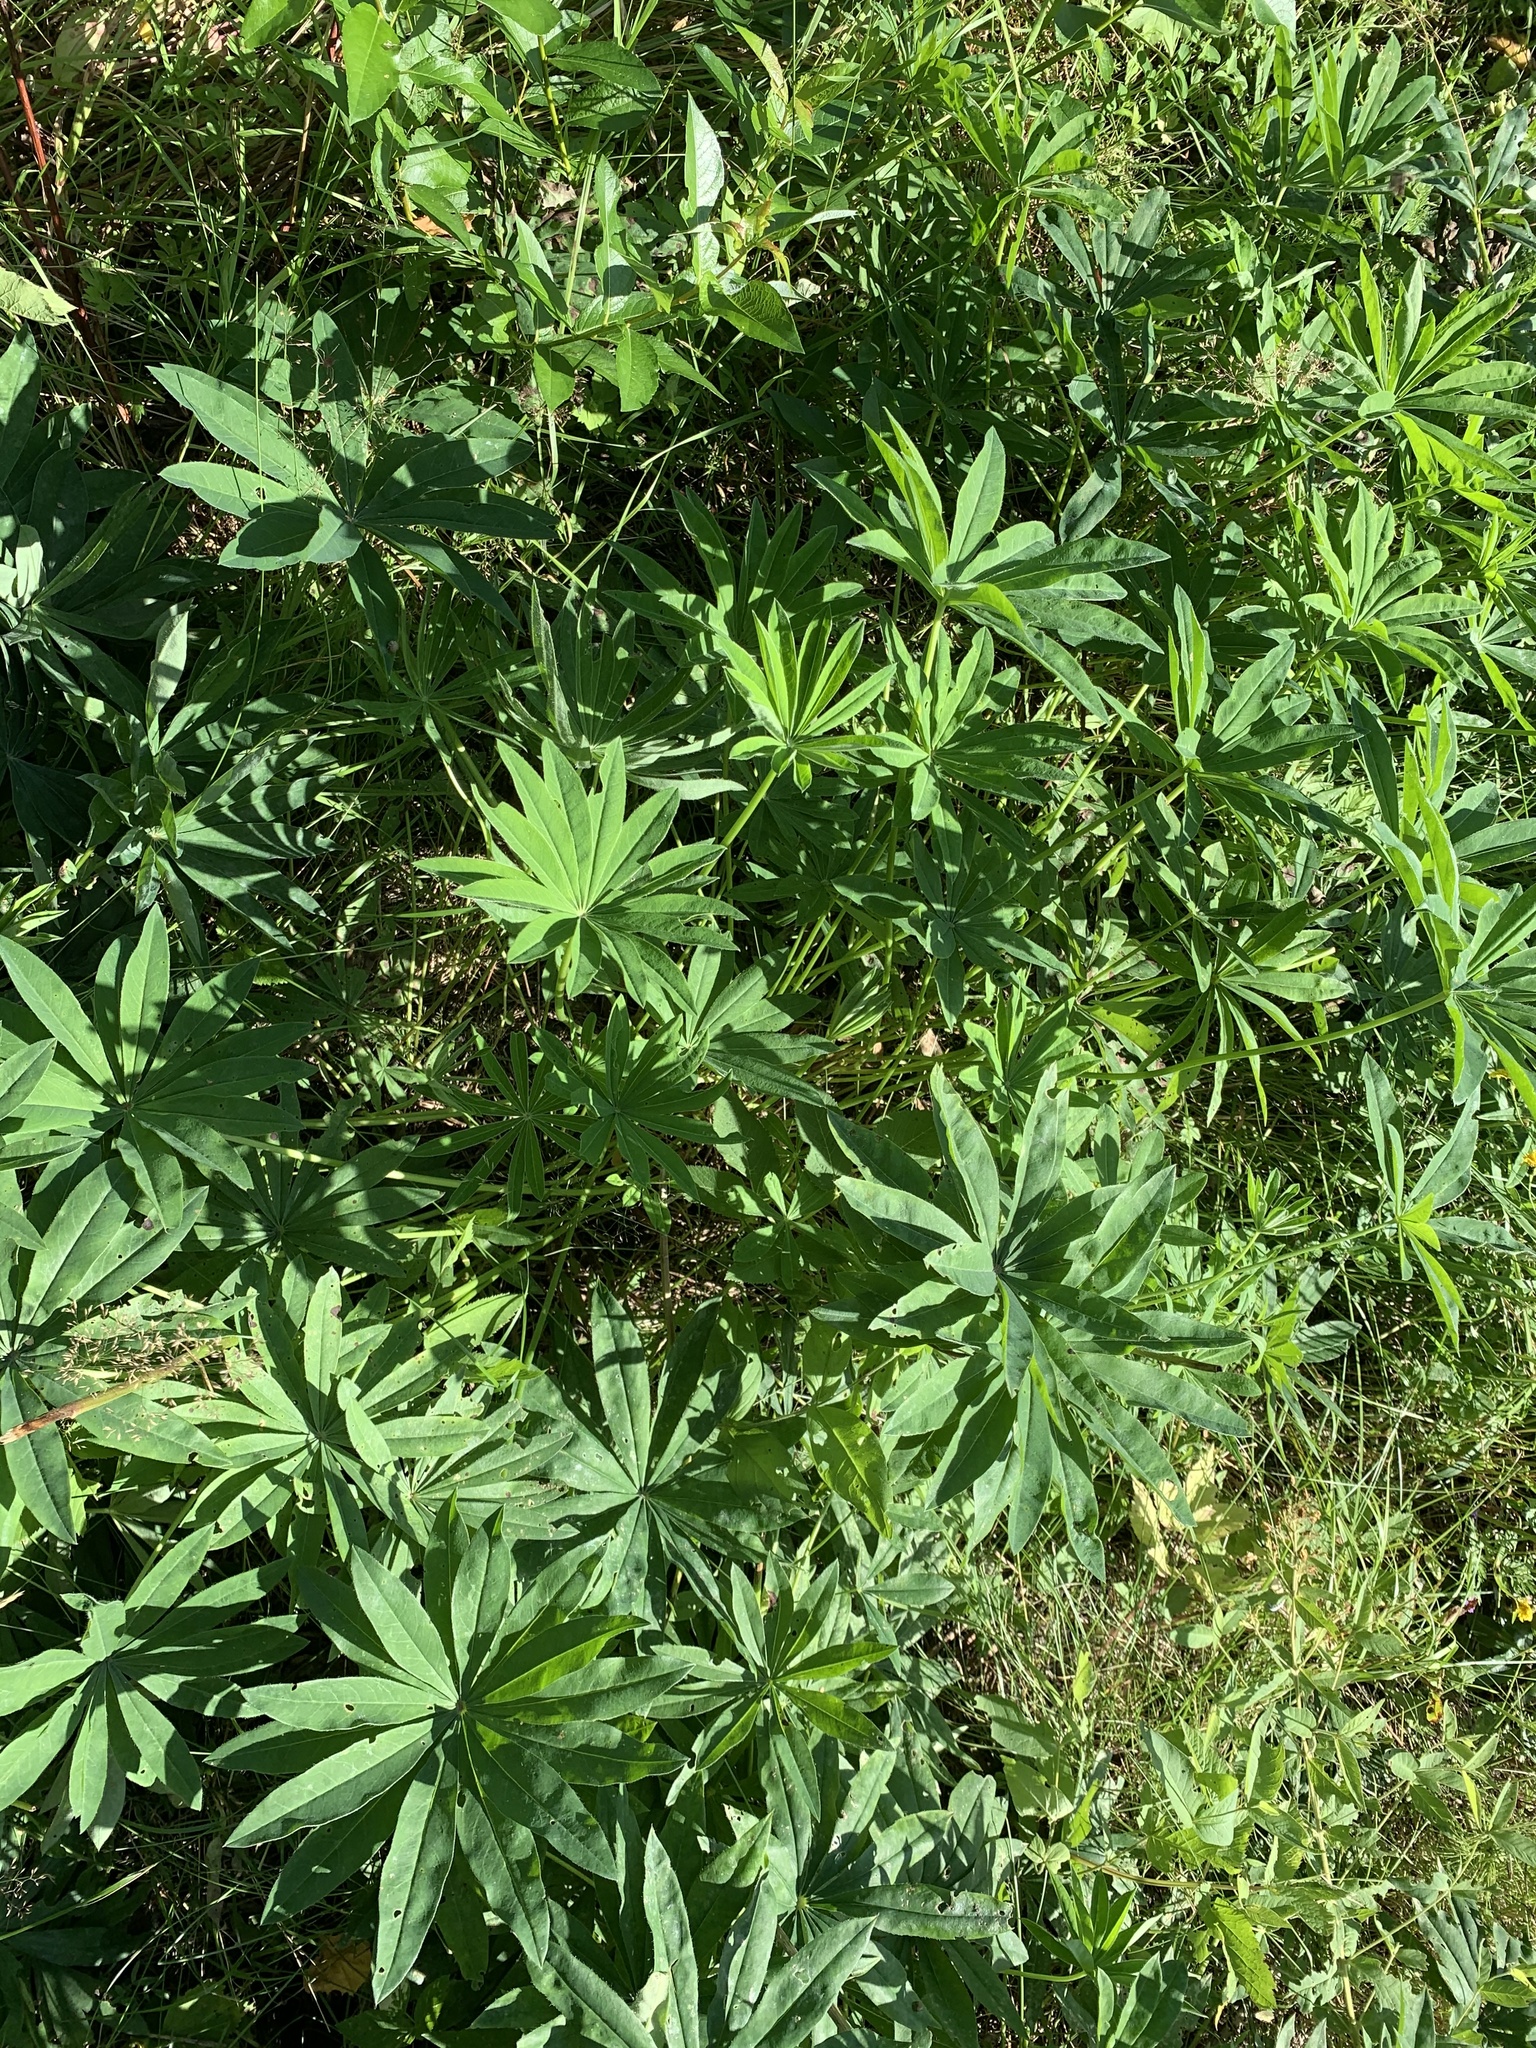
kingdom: Plantae
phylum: Tracheophyta
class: Magnoliopsida
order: Fabales
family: Fabaceae
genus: Lupinus
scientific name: Lupinus polyphyllus
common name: Garden lupin
